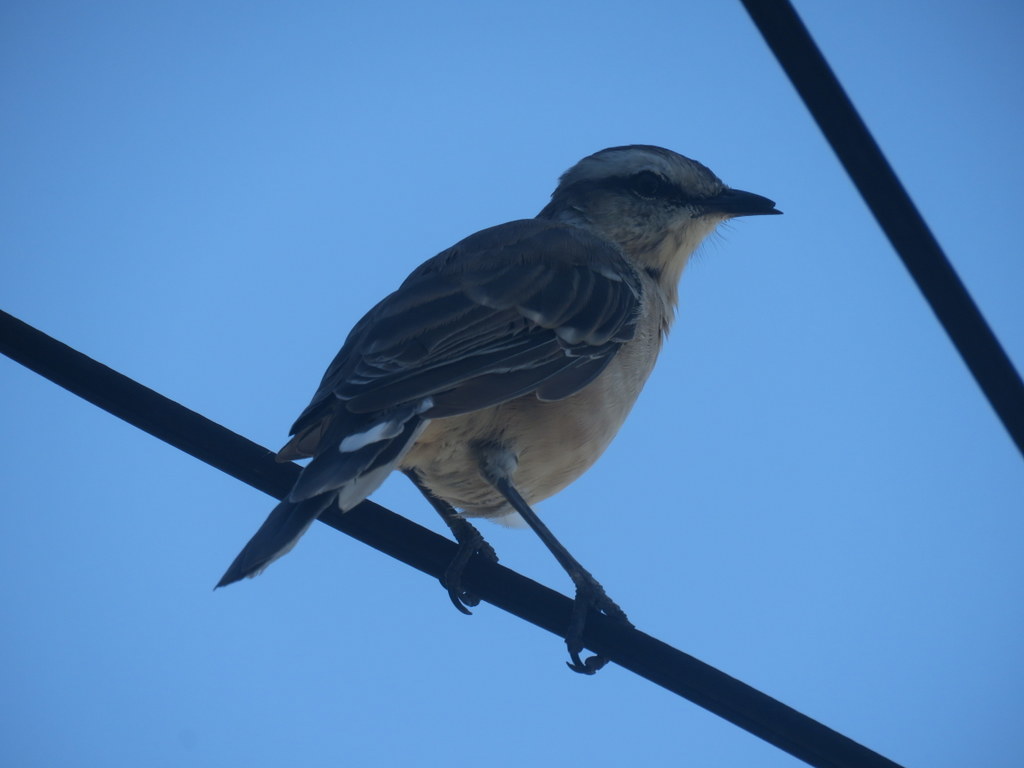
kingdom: Animalia
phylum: Chordata
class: Aves
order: Passeriformes
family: Mimidae
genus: Mimus
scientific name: Mimus saturninus
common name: Chalk-browed mockingbird
